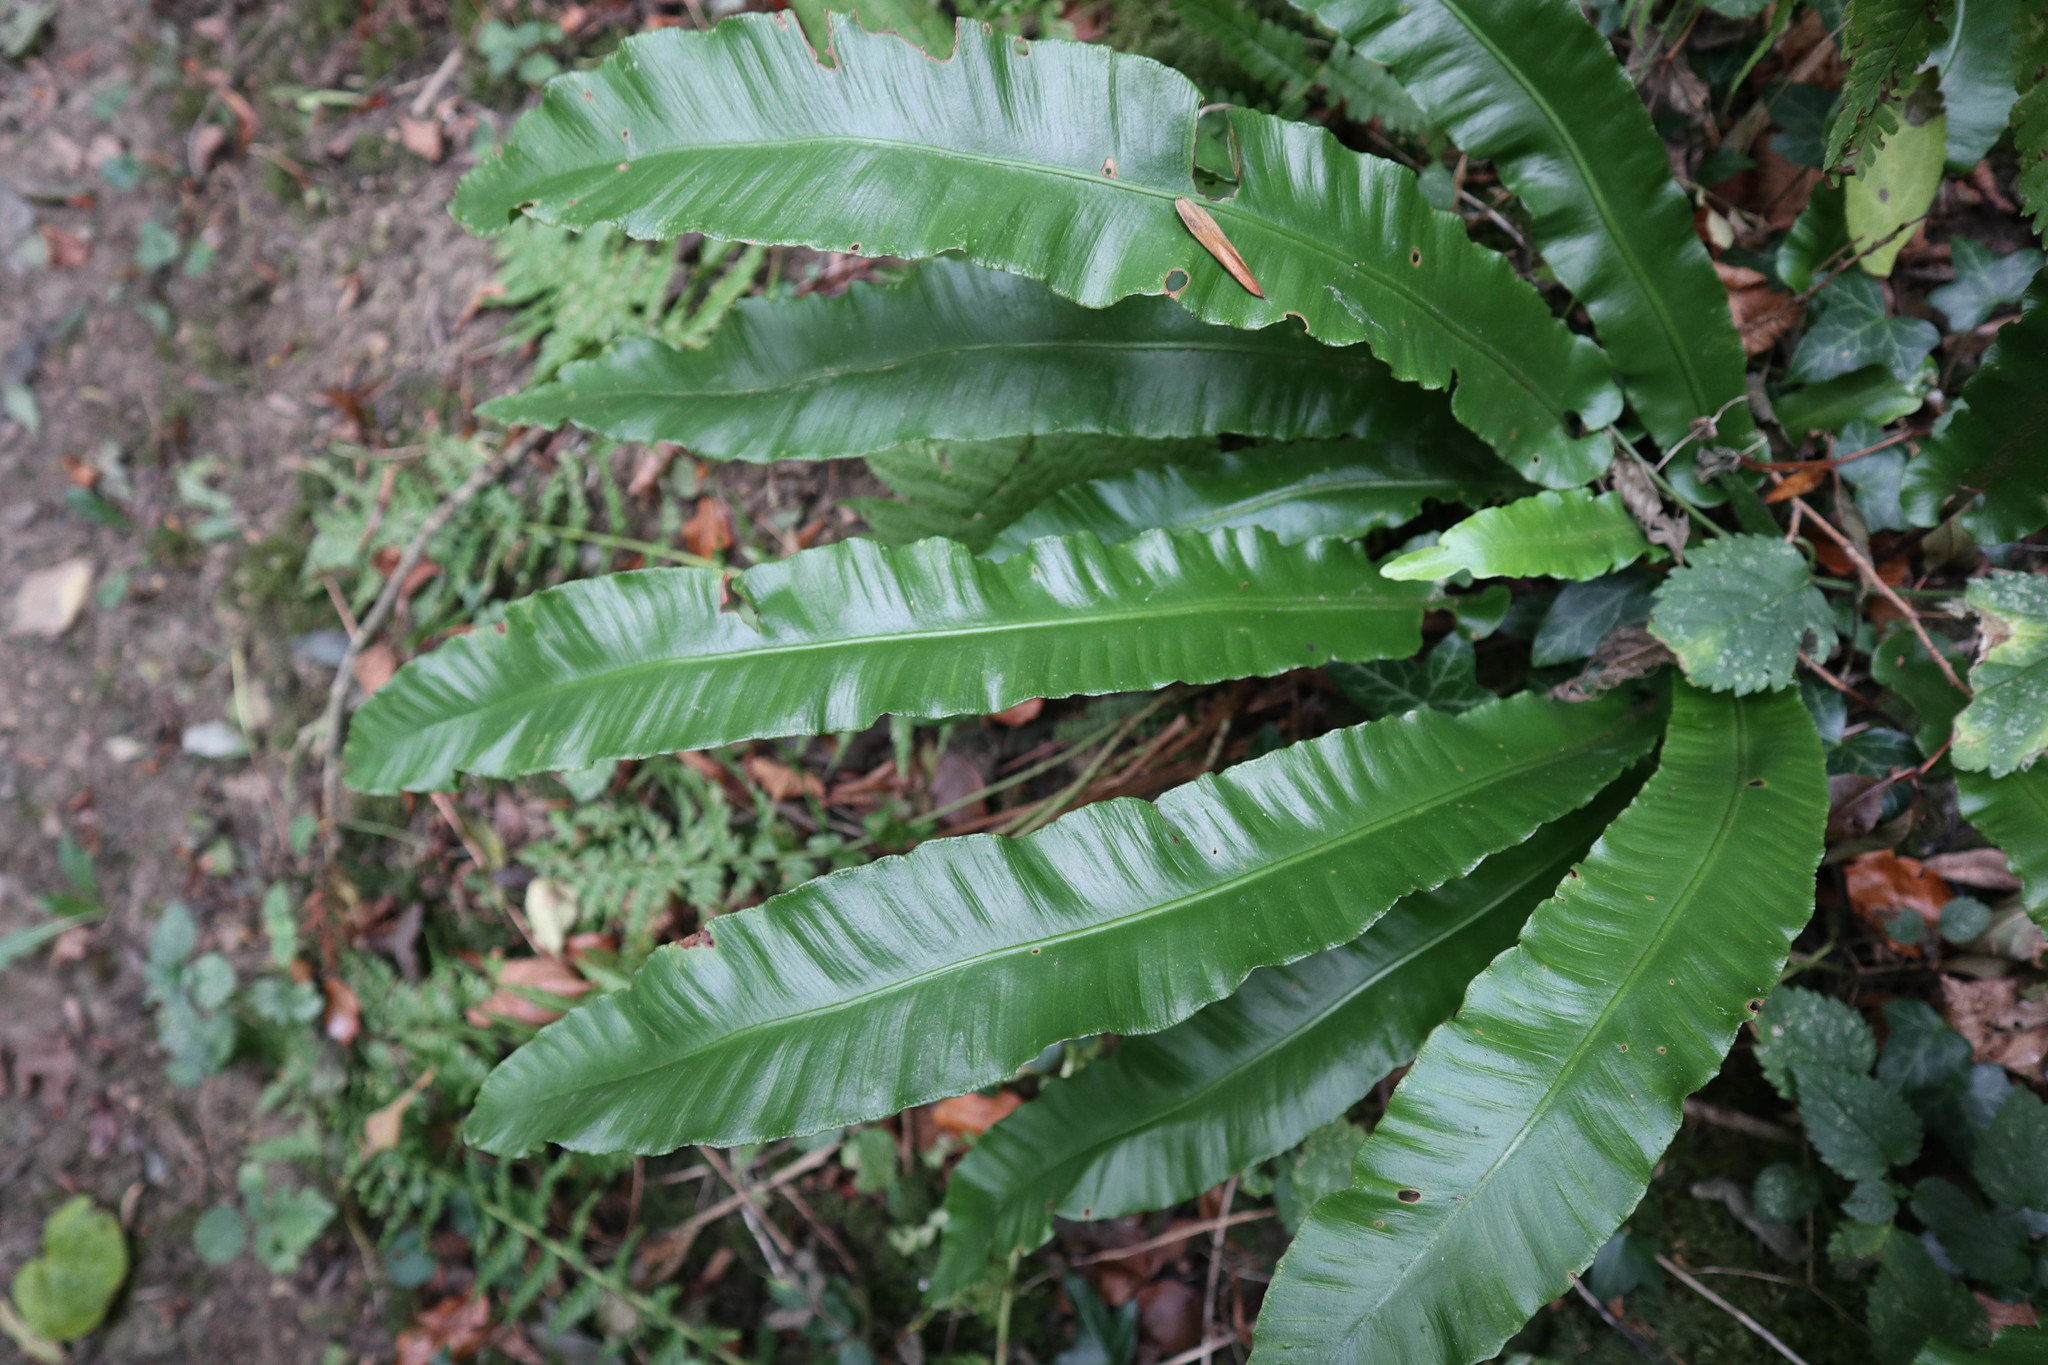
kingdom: Plantae
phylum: Tracheophyta
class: Polypodiopsida
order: Polypodiales
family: Aspleniaceae
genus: Asplenium
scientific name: Asplenium scolopendrium
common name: Hart's-tongue fern
